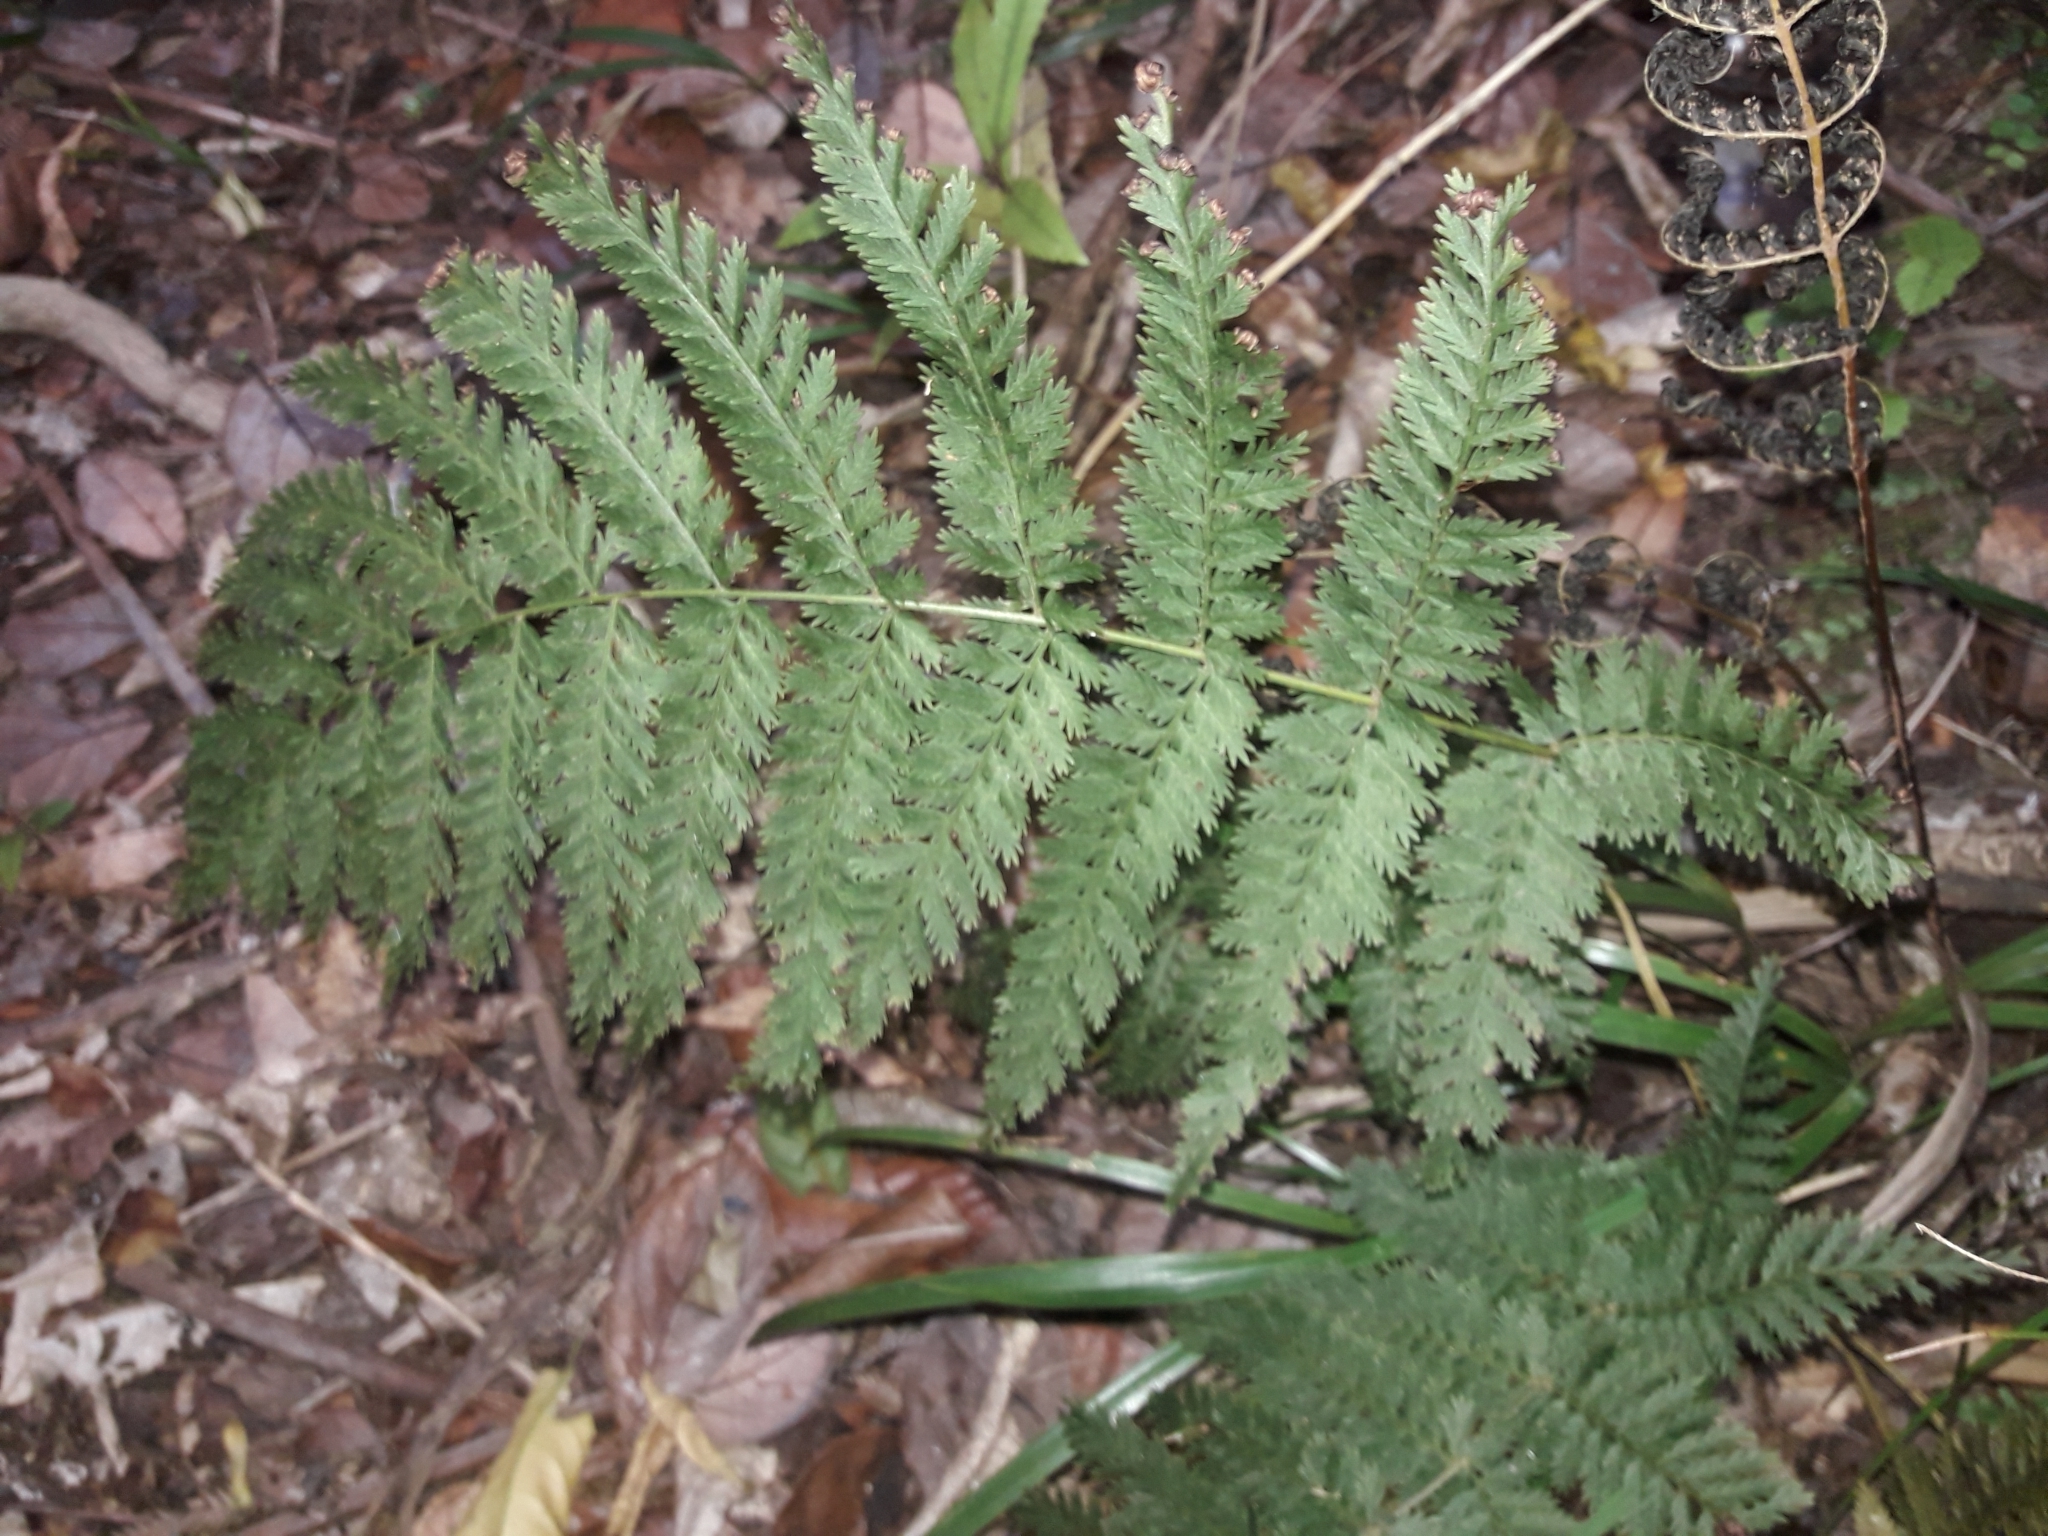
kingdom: Plantae
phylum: Tracheophyta
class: Polypodiopsida
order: Osmundales
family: Osmundaceae
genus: Leptopteris
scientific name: Leptopteris hymenophylloides
